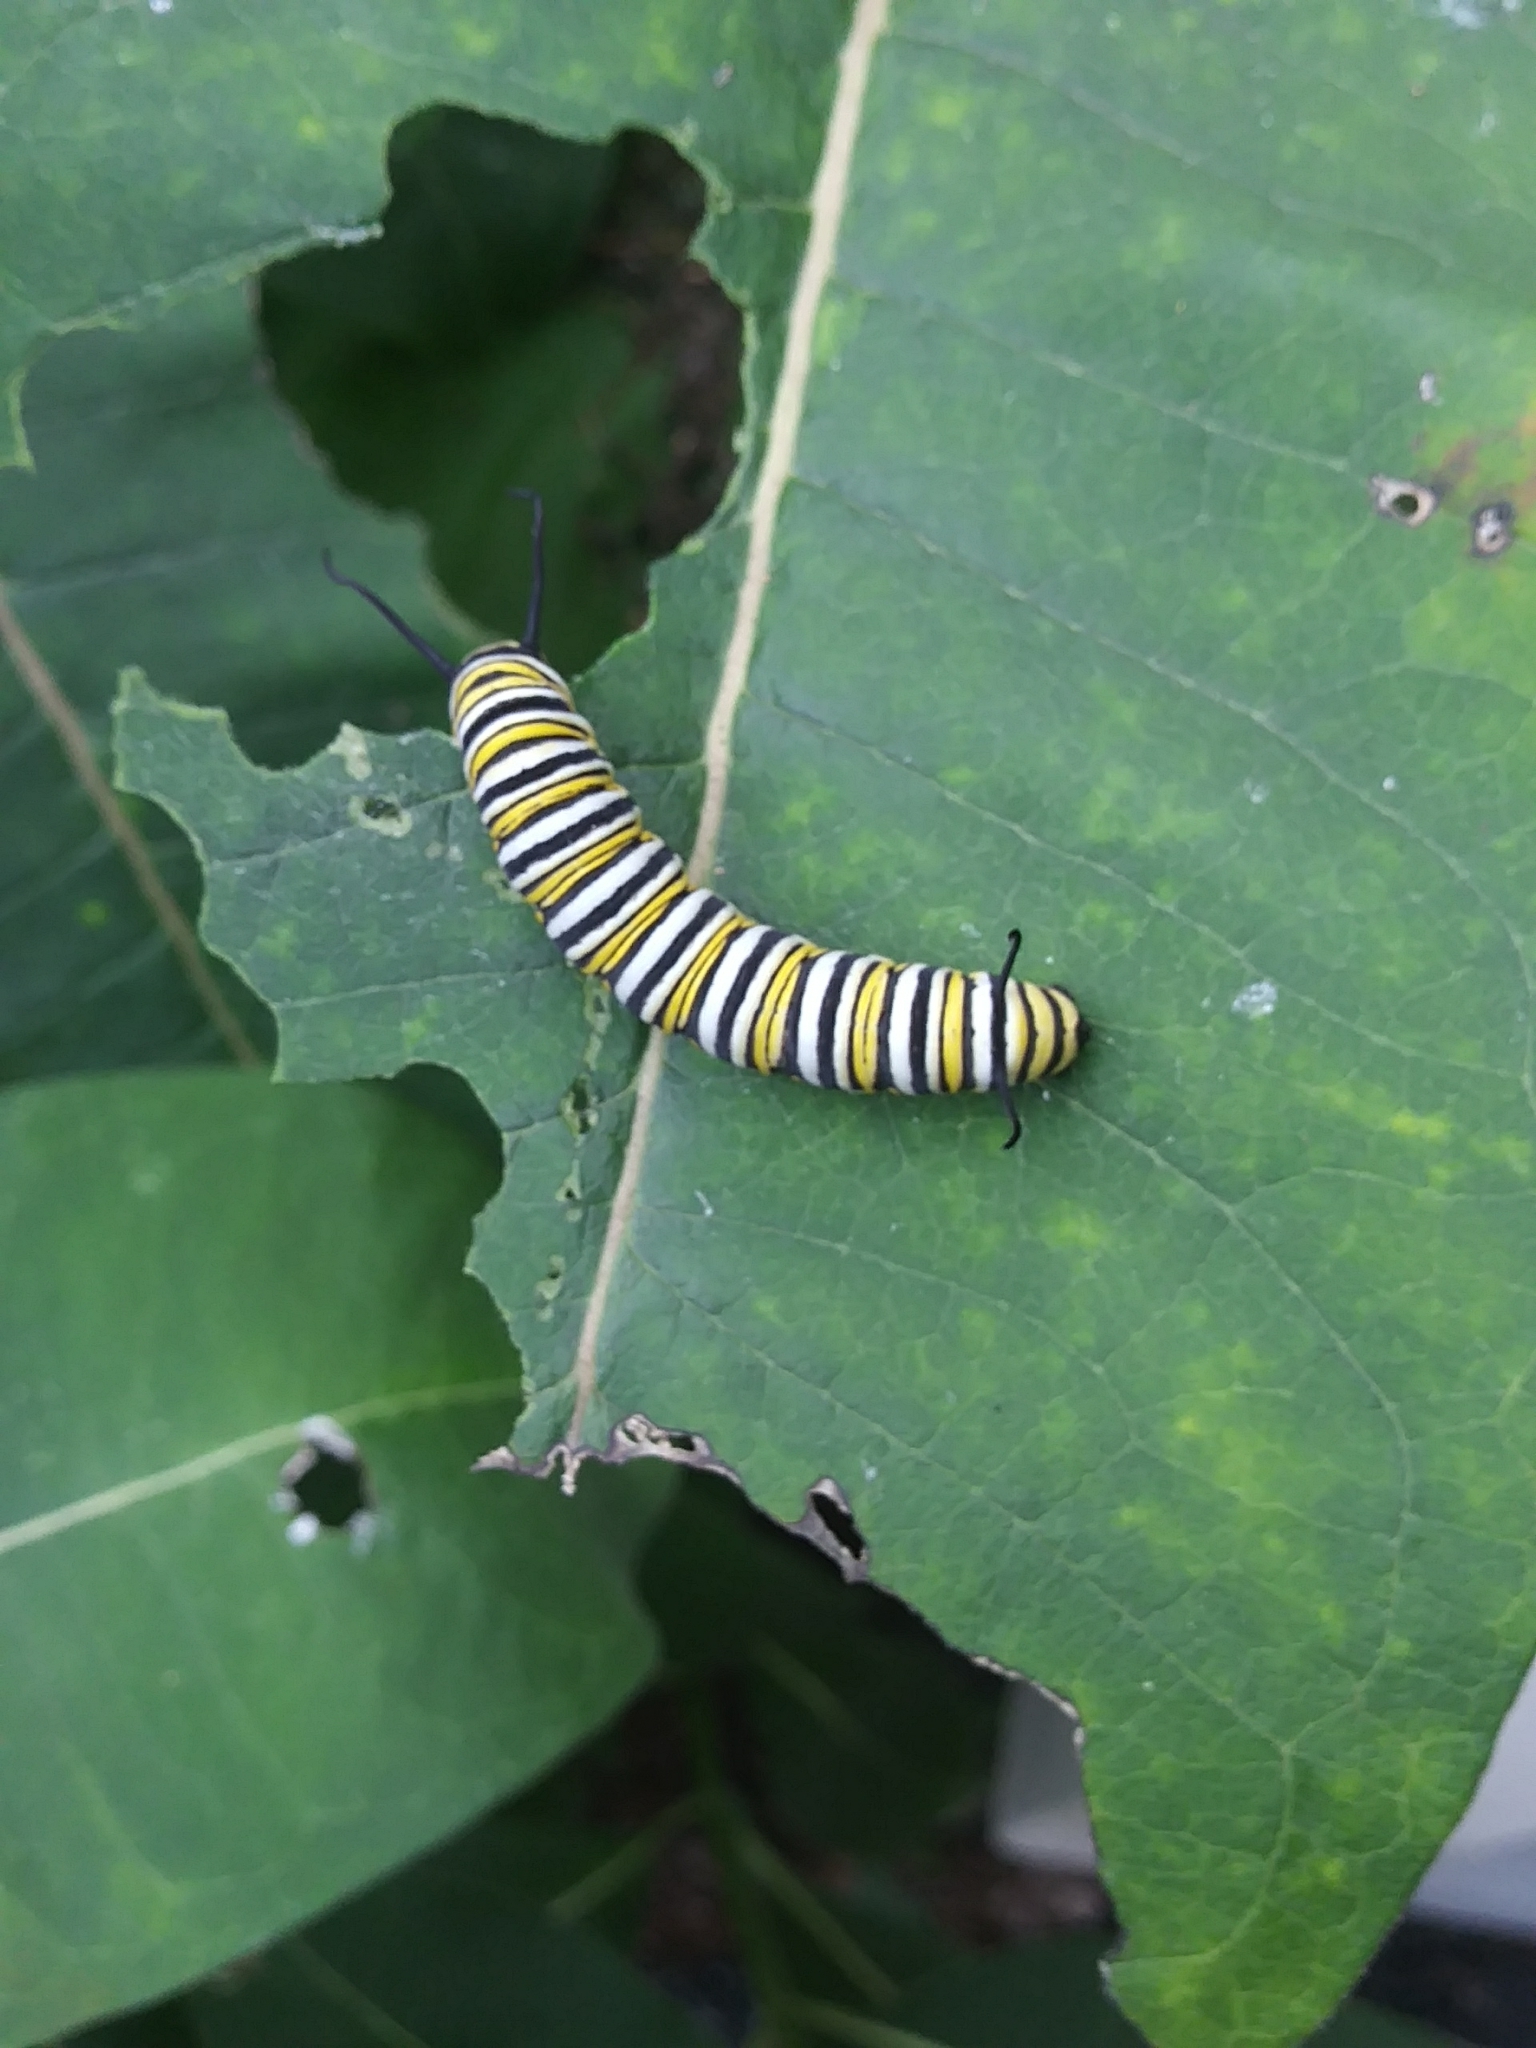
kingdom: Animalia
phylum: Arthropoda
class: Insecta
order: Lepidoptera
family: Nymphalidae
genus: Danaus
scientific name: Danaus plexippus
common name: Monarch
